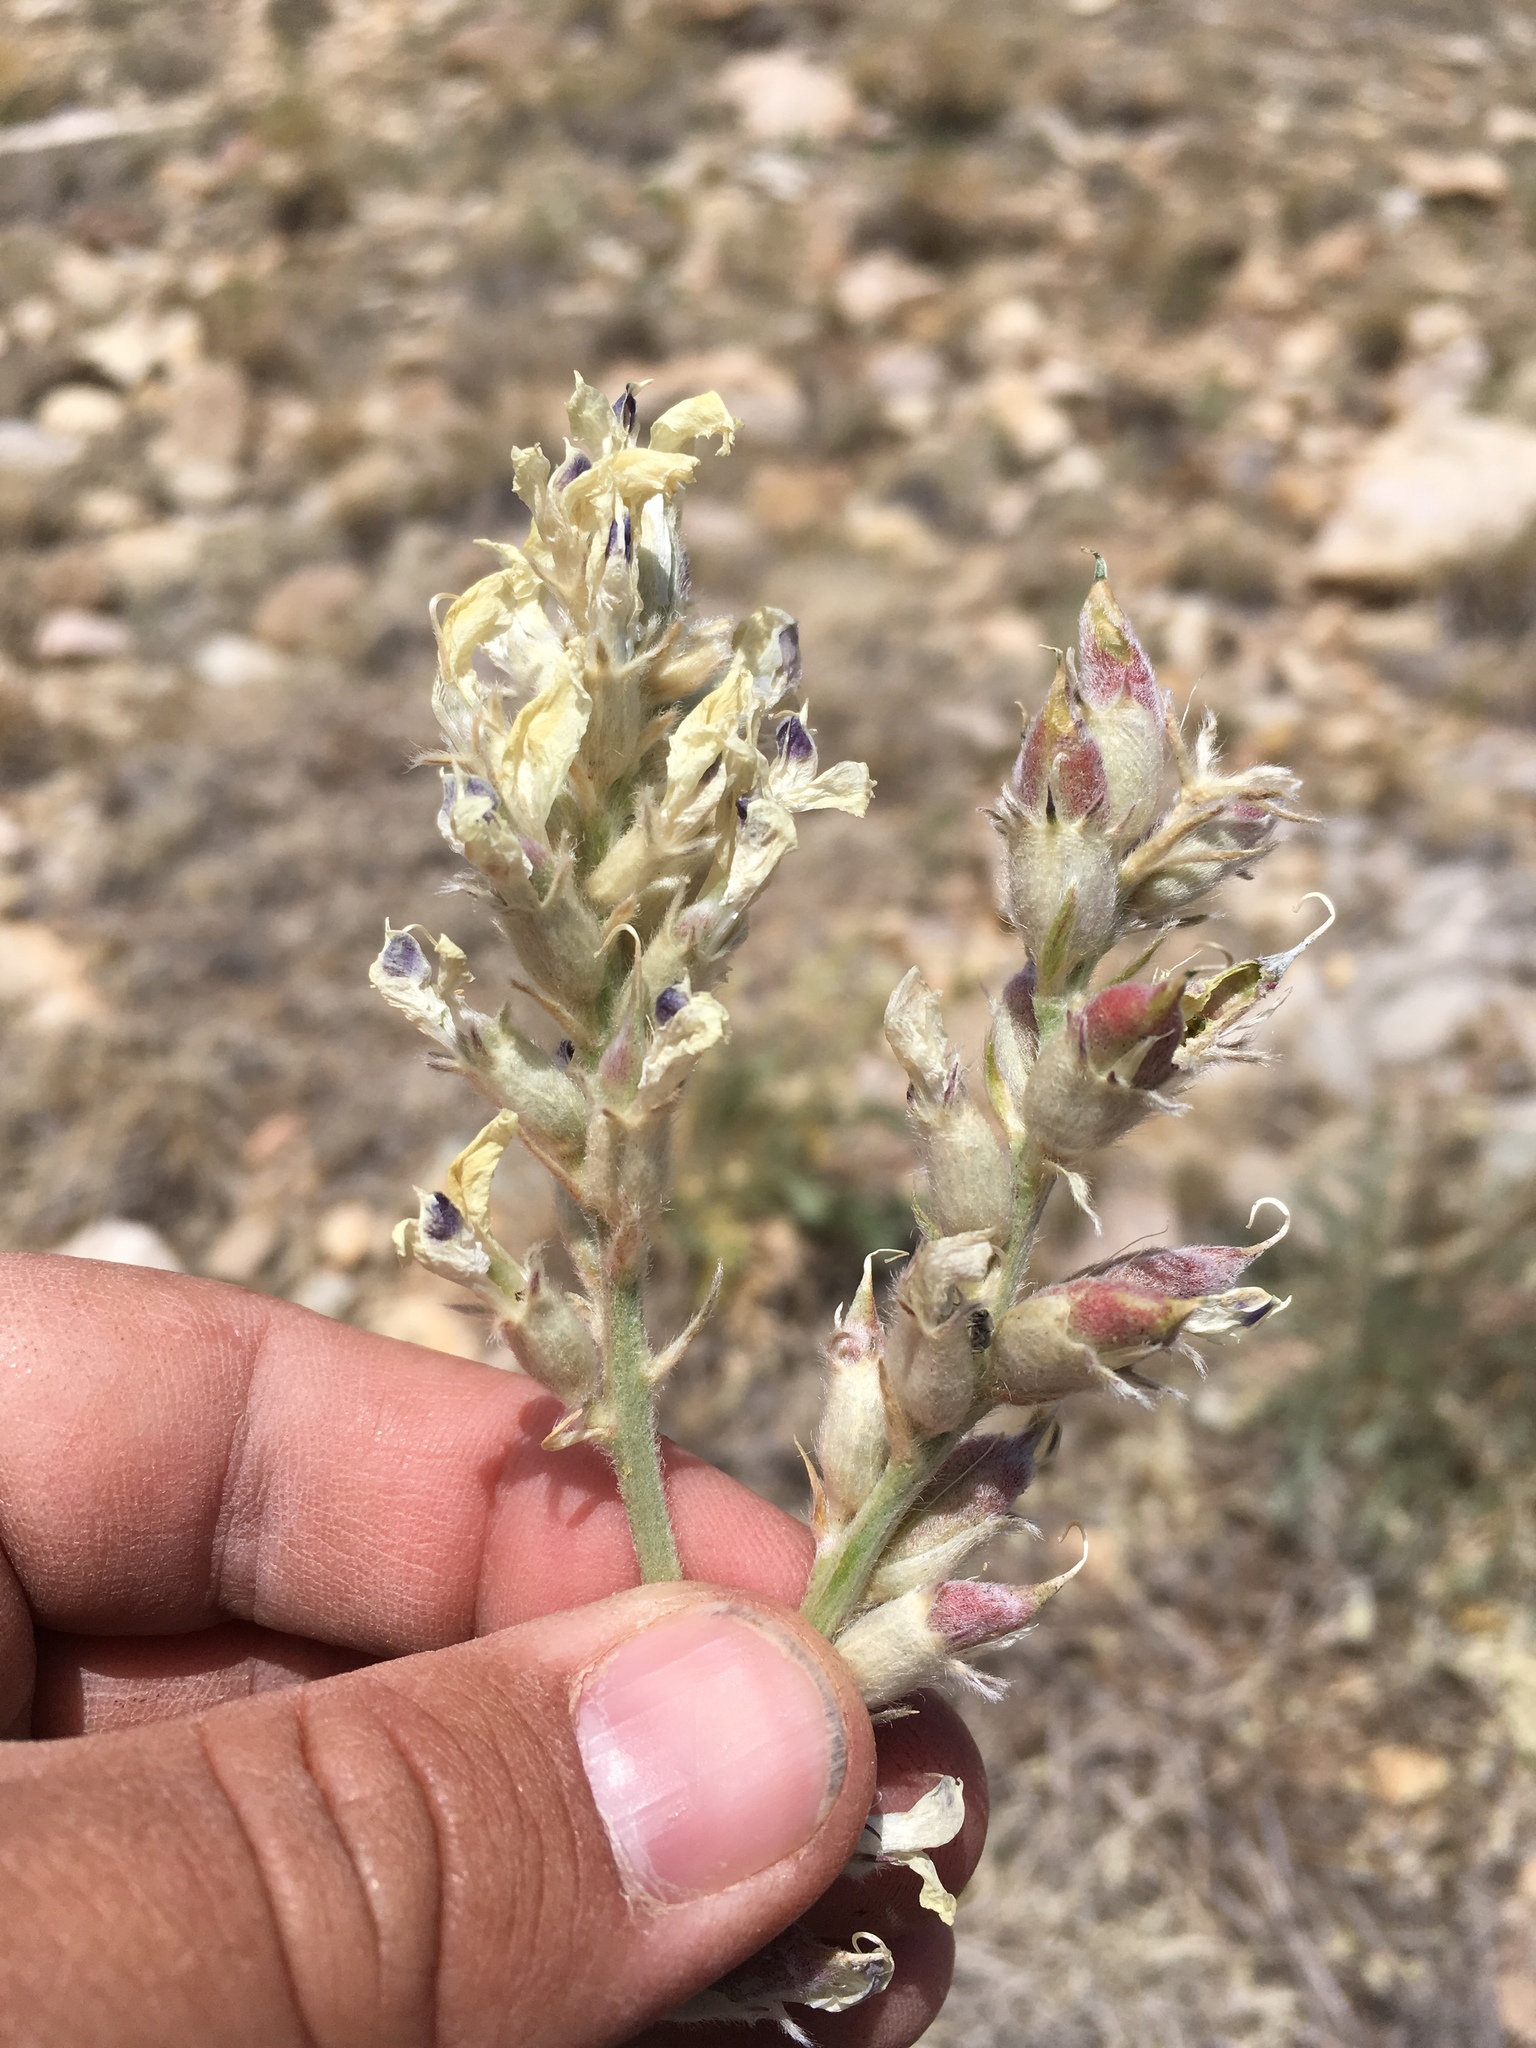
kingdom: Plantae
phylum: Tracheophyta
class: Magnoliopsida
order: Fabales
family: Fabaceae
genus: Oxytropis
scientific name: Oxytropis sericea
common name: Silky locoweed
